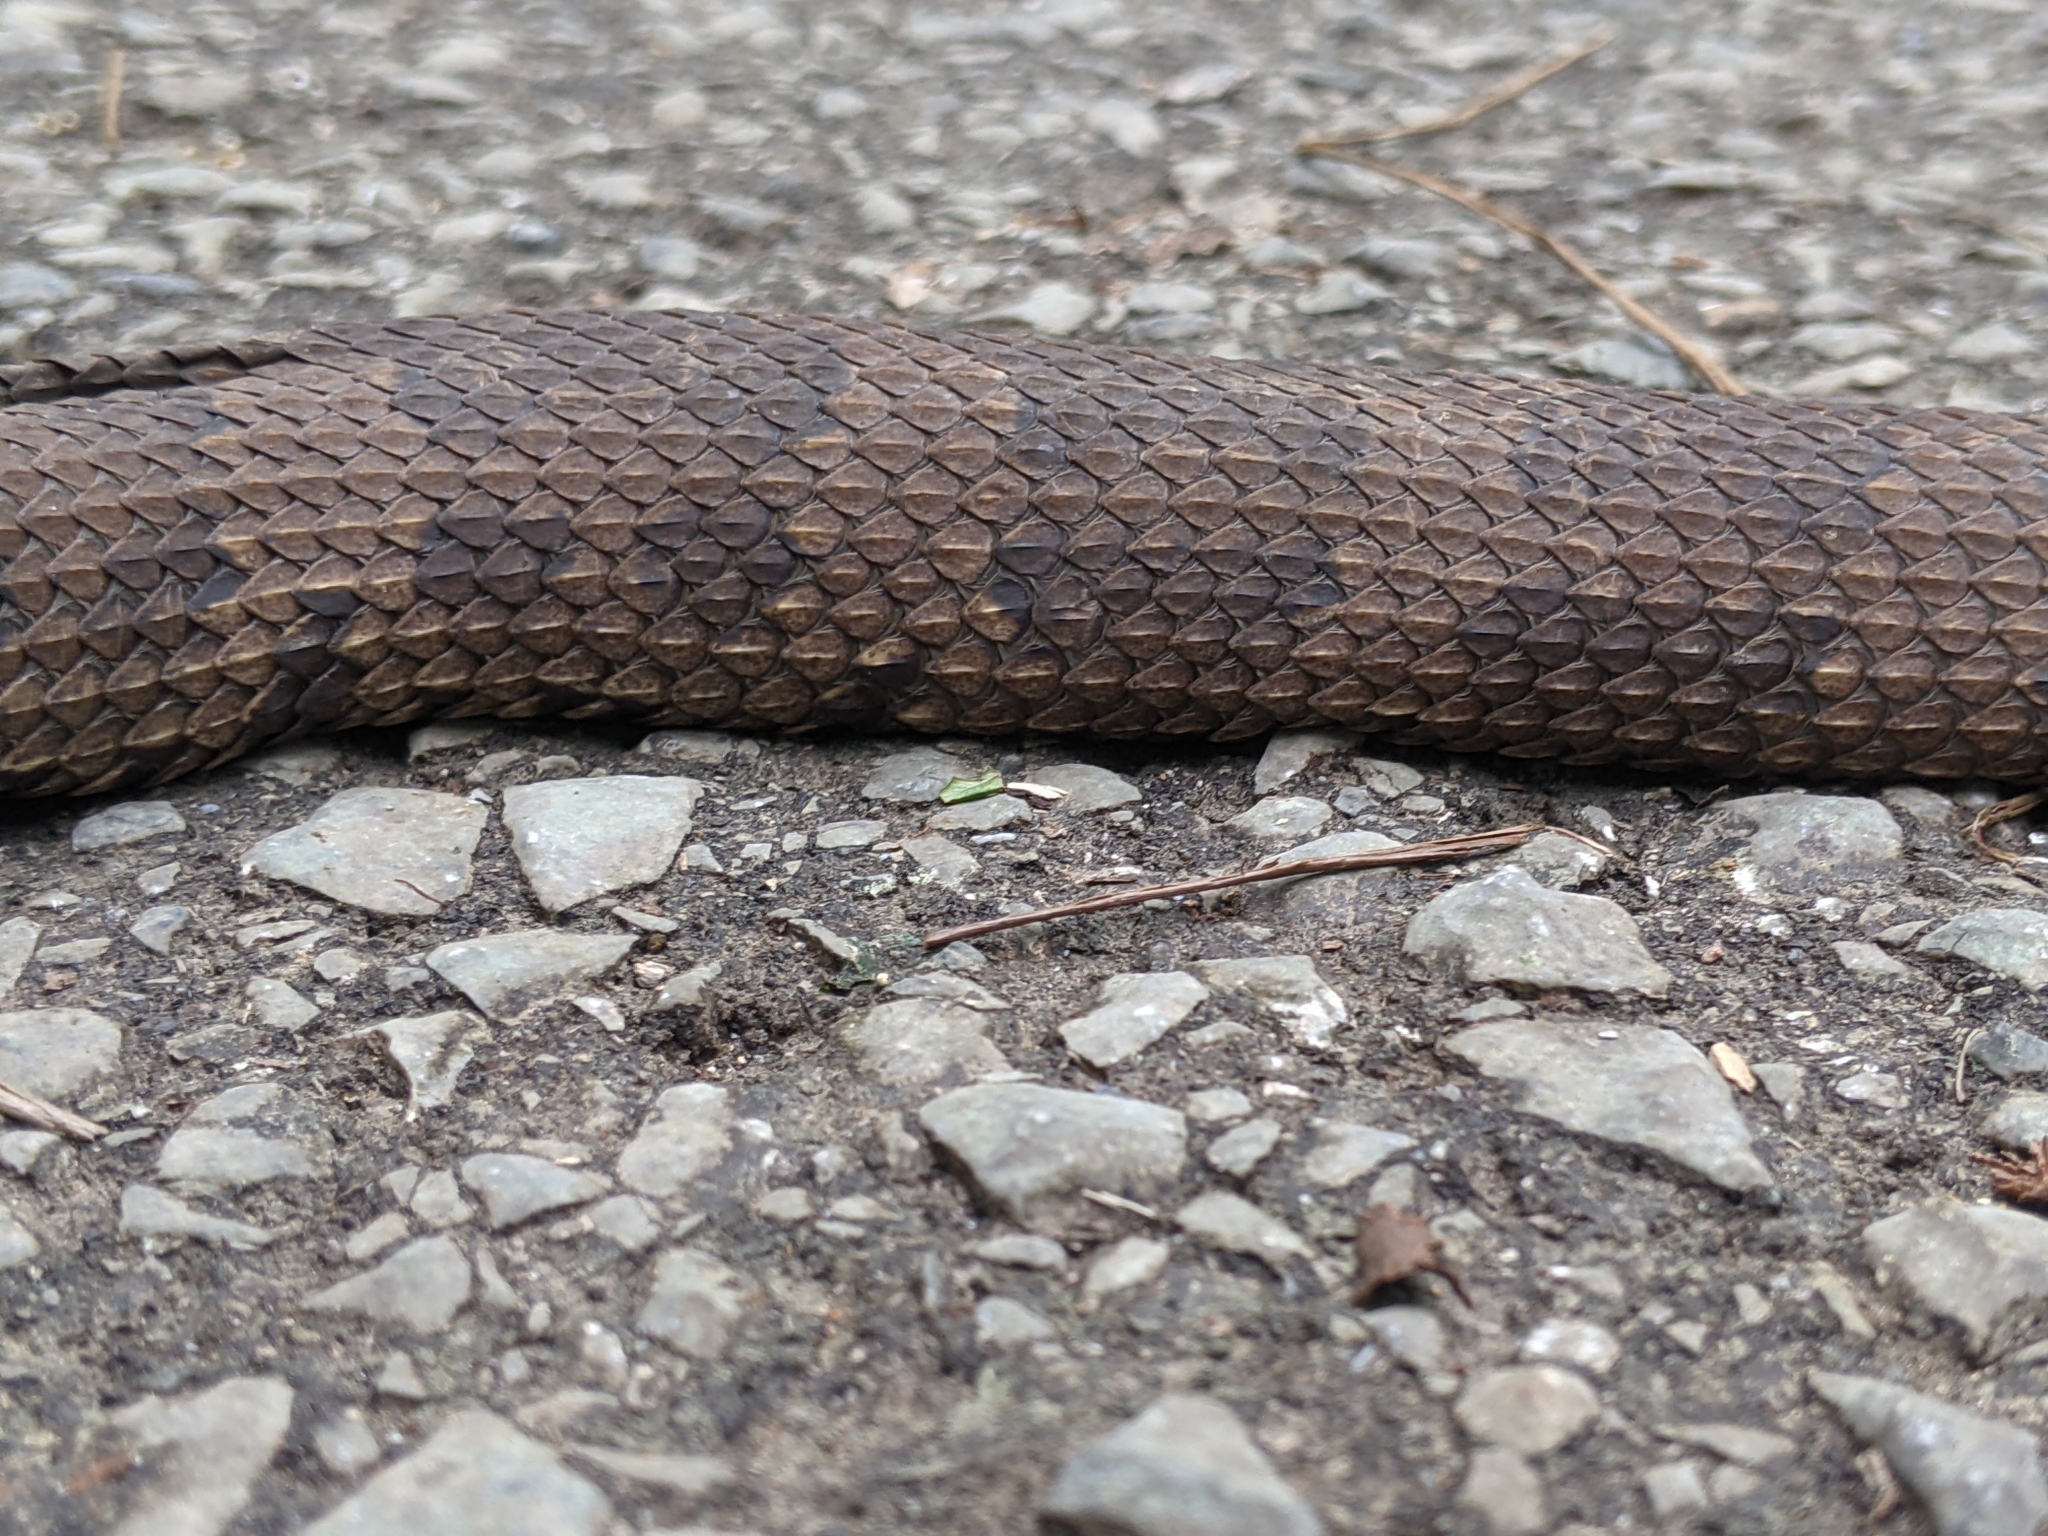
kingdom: Animalia
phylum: Chordata
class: Squamata
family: Viperidae
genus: Ovophis
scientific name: Ovophis okinavensis
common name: Okinawa pitviper
